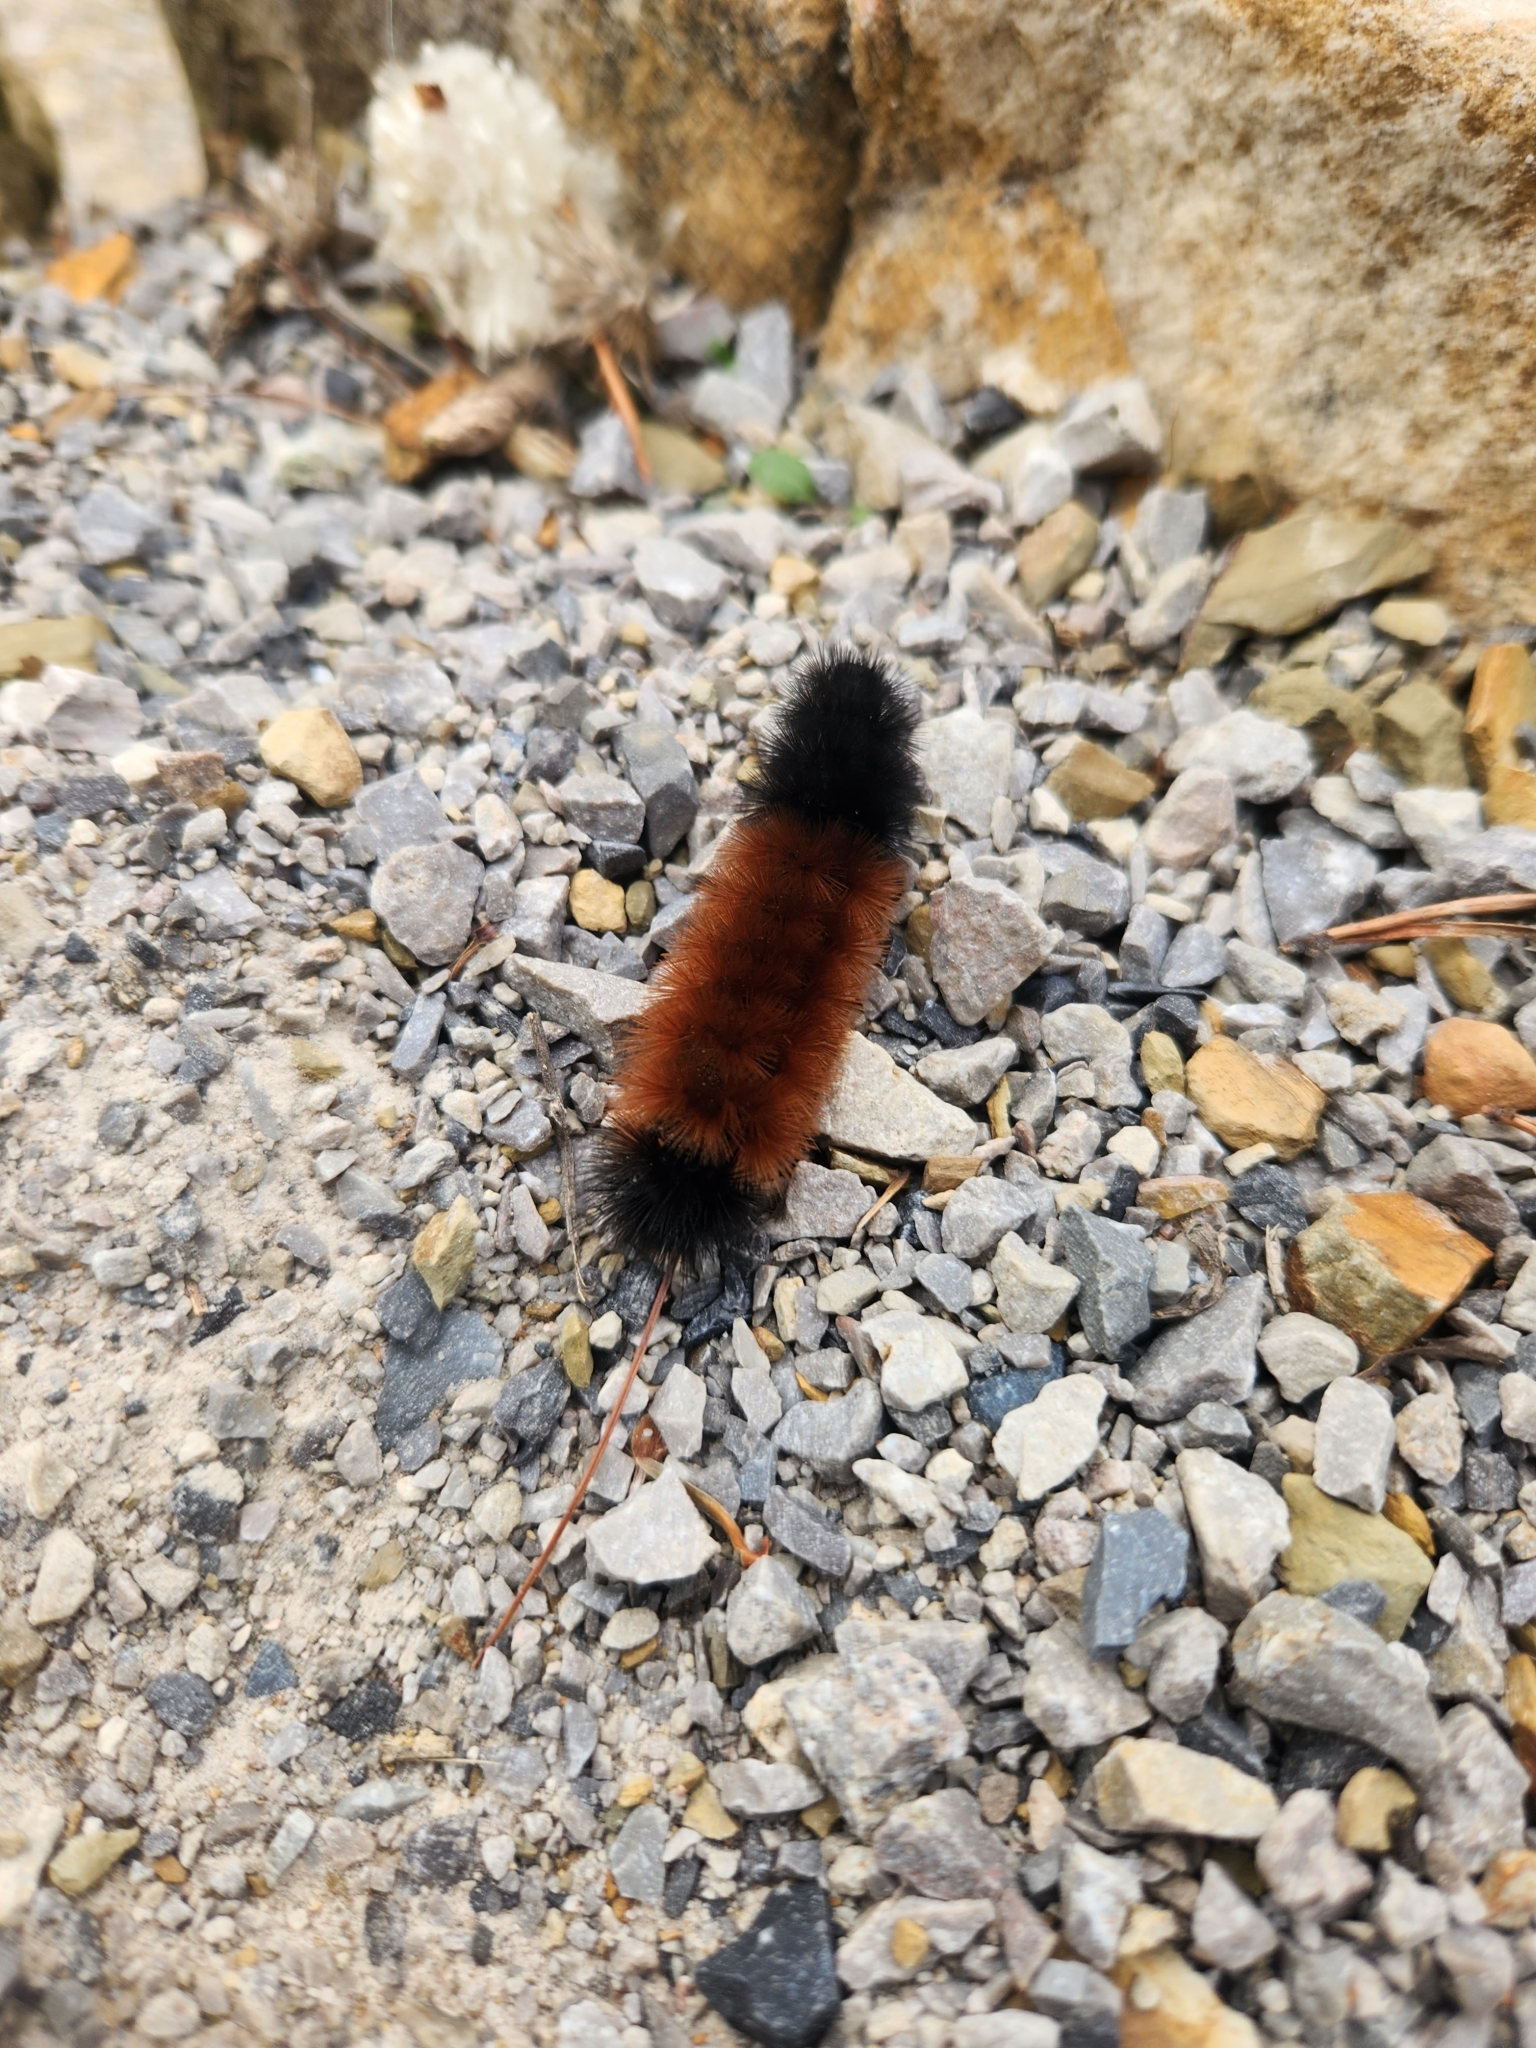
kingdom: Animalia
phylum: Arthropoda
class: Insecta
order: Lepidoptera
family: Erebidae
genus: Pyrrharctia
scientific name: Pyrrharctia isabella
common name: Isabella tiger moth
